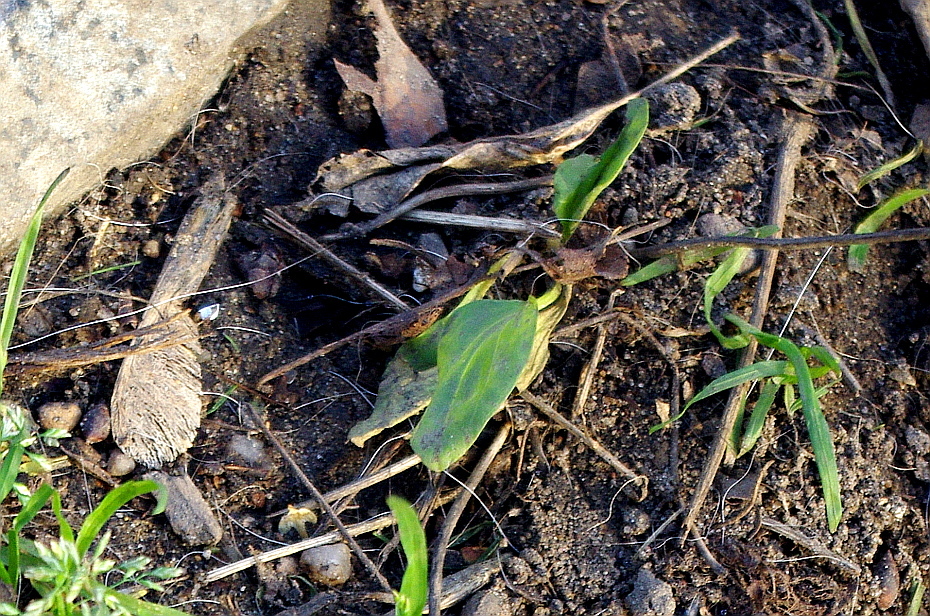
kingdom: Plantae
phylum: Tracheophyta
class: Magnoliopsida
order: Lamiales
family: Plantaginaceae
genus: Plantago
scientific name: Plantago major
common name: Common plantain
